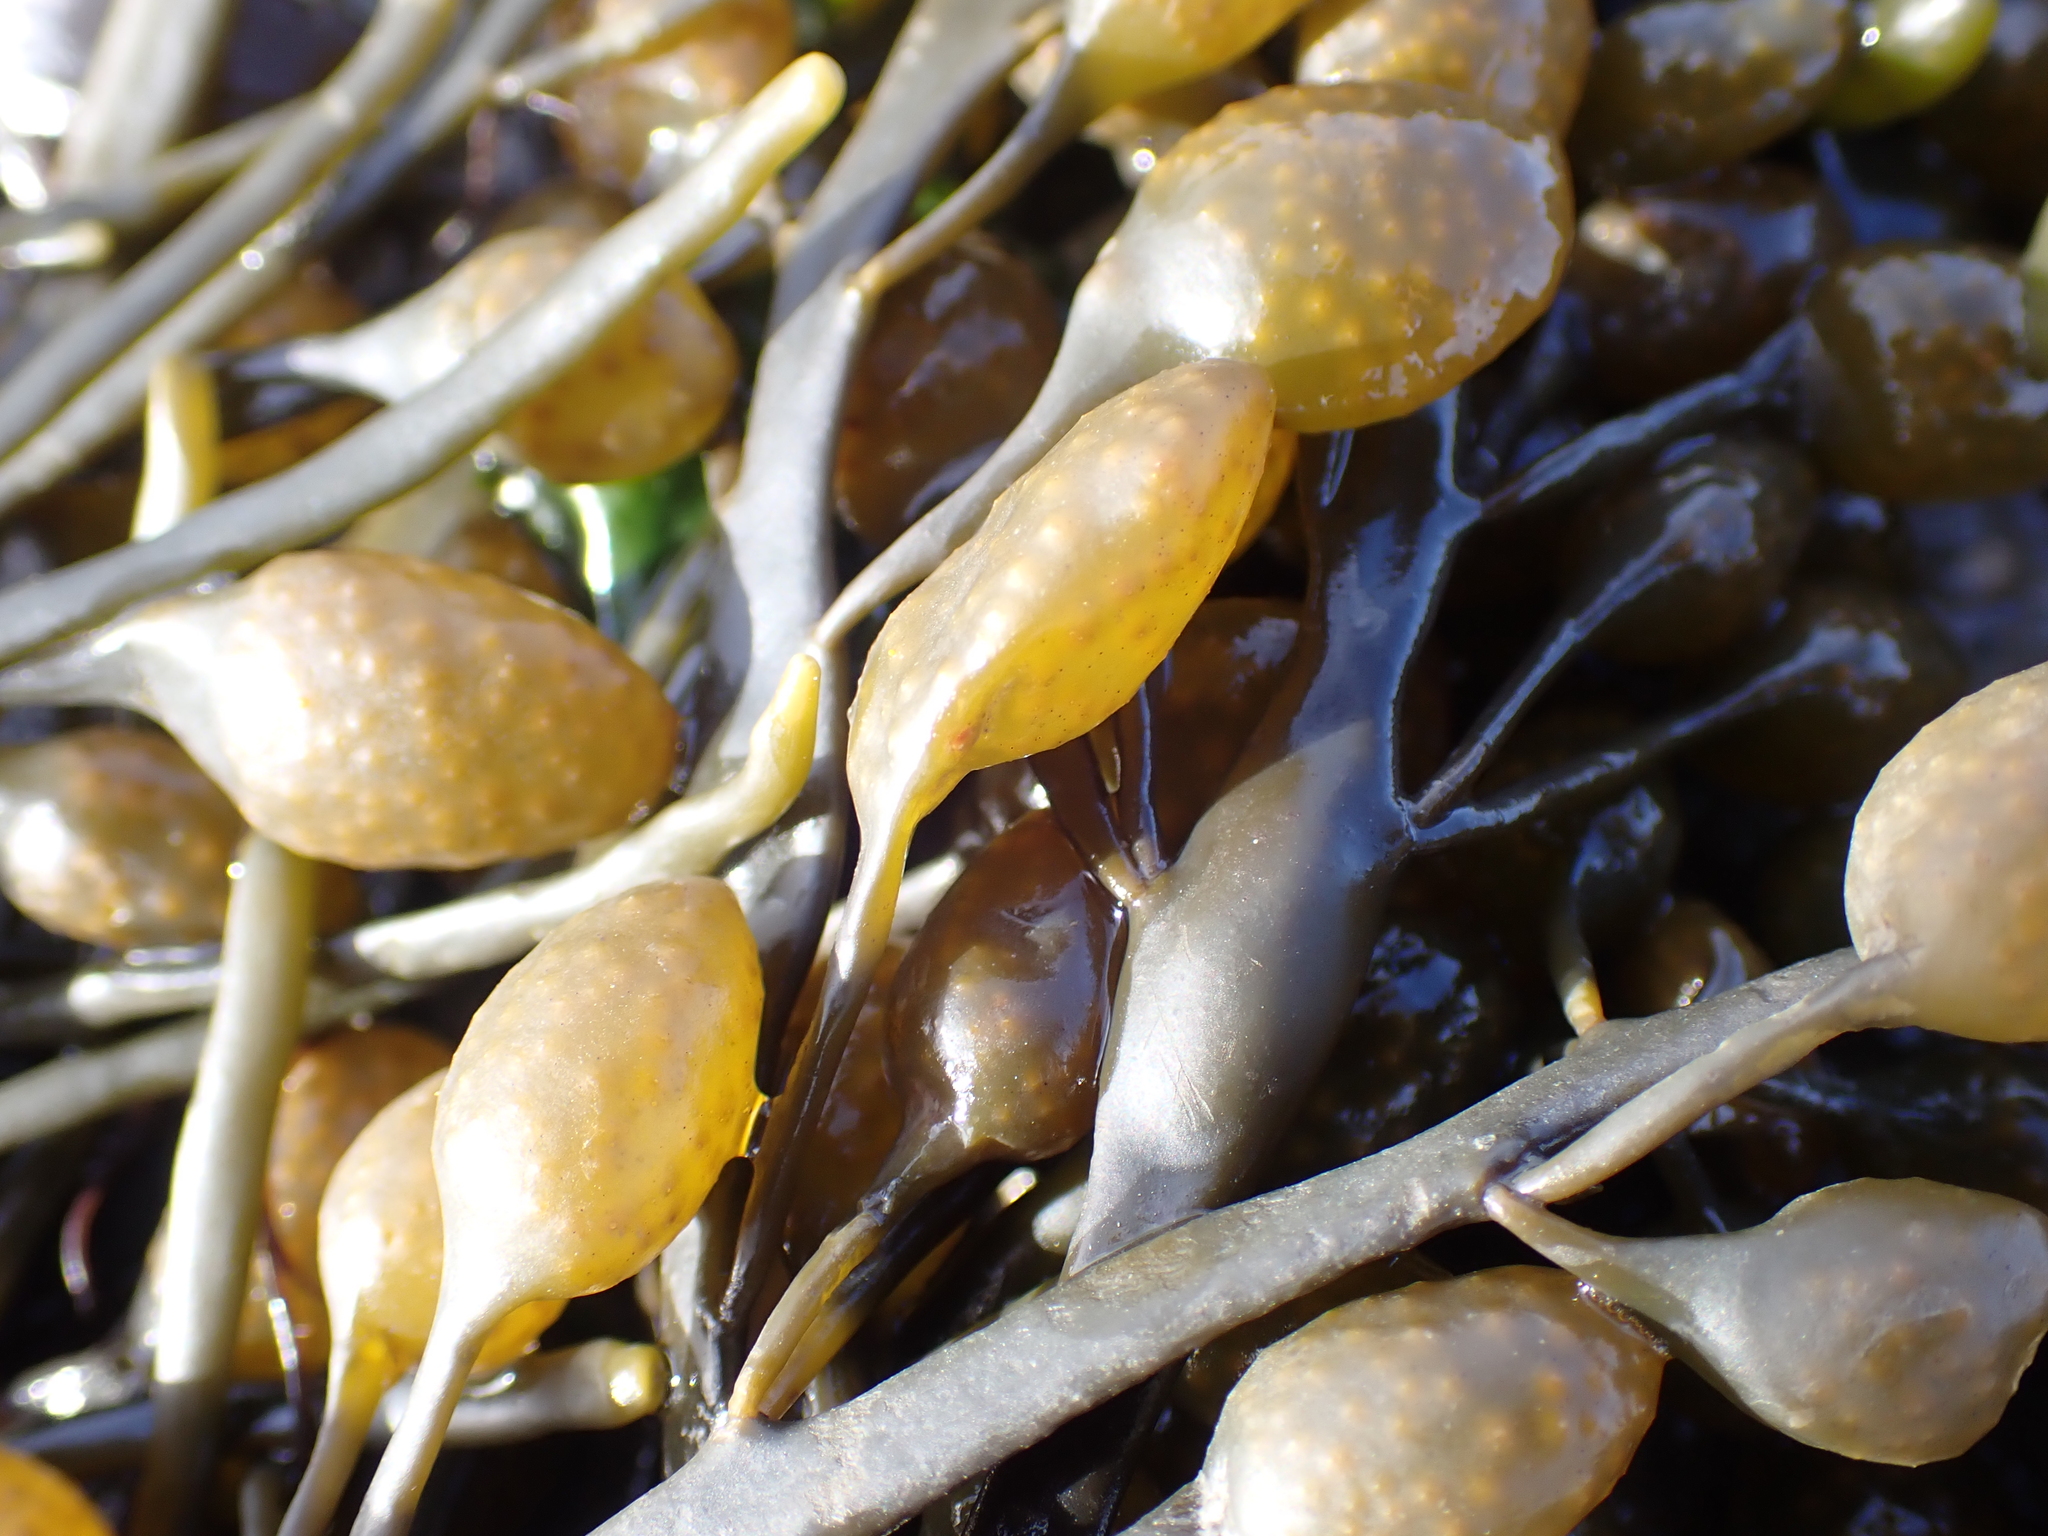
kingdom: Chromista
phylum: Ochrophyta
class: Phaeophyceae
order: Fucales
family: Fucaceae
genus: Ascophyllum
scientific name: Ascophyllum nodosum
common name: Knotted wrack
